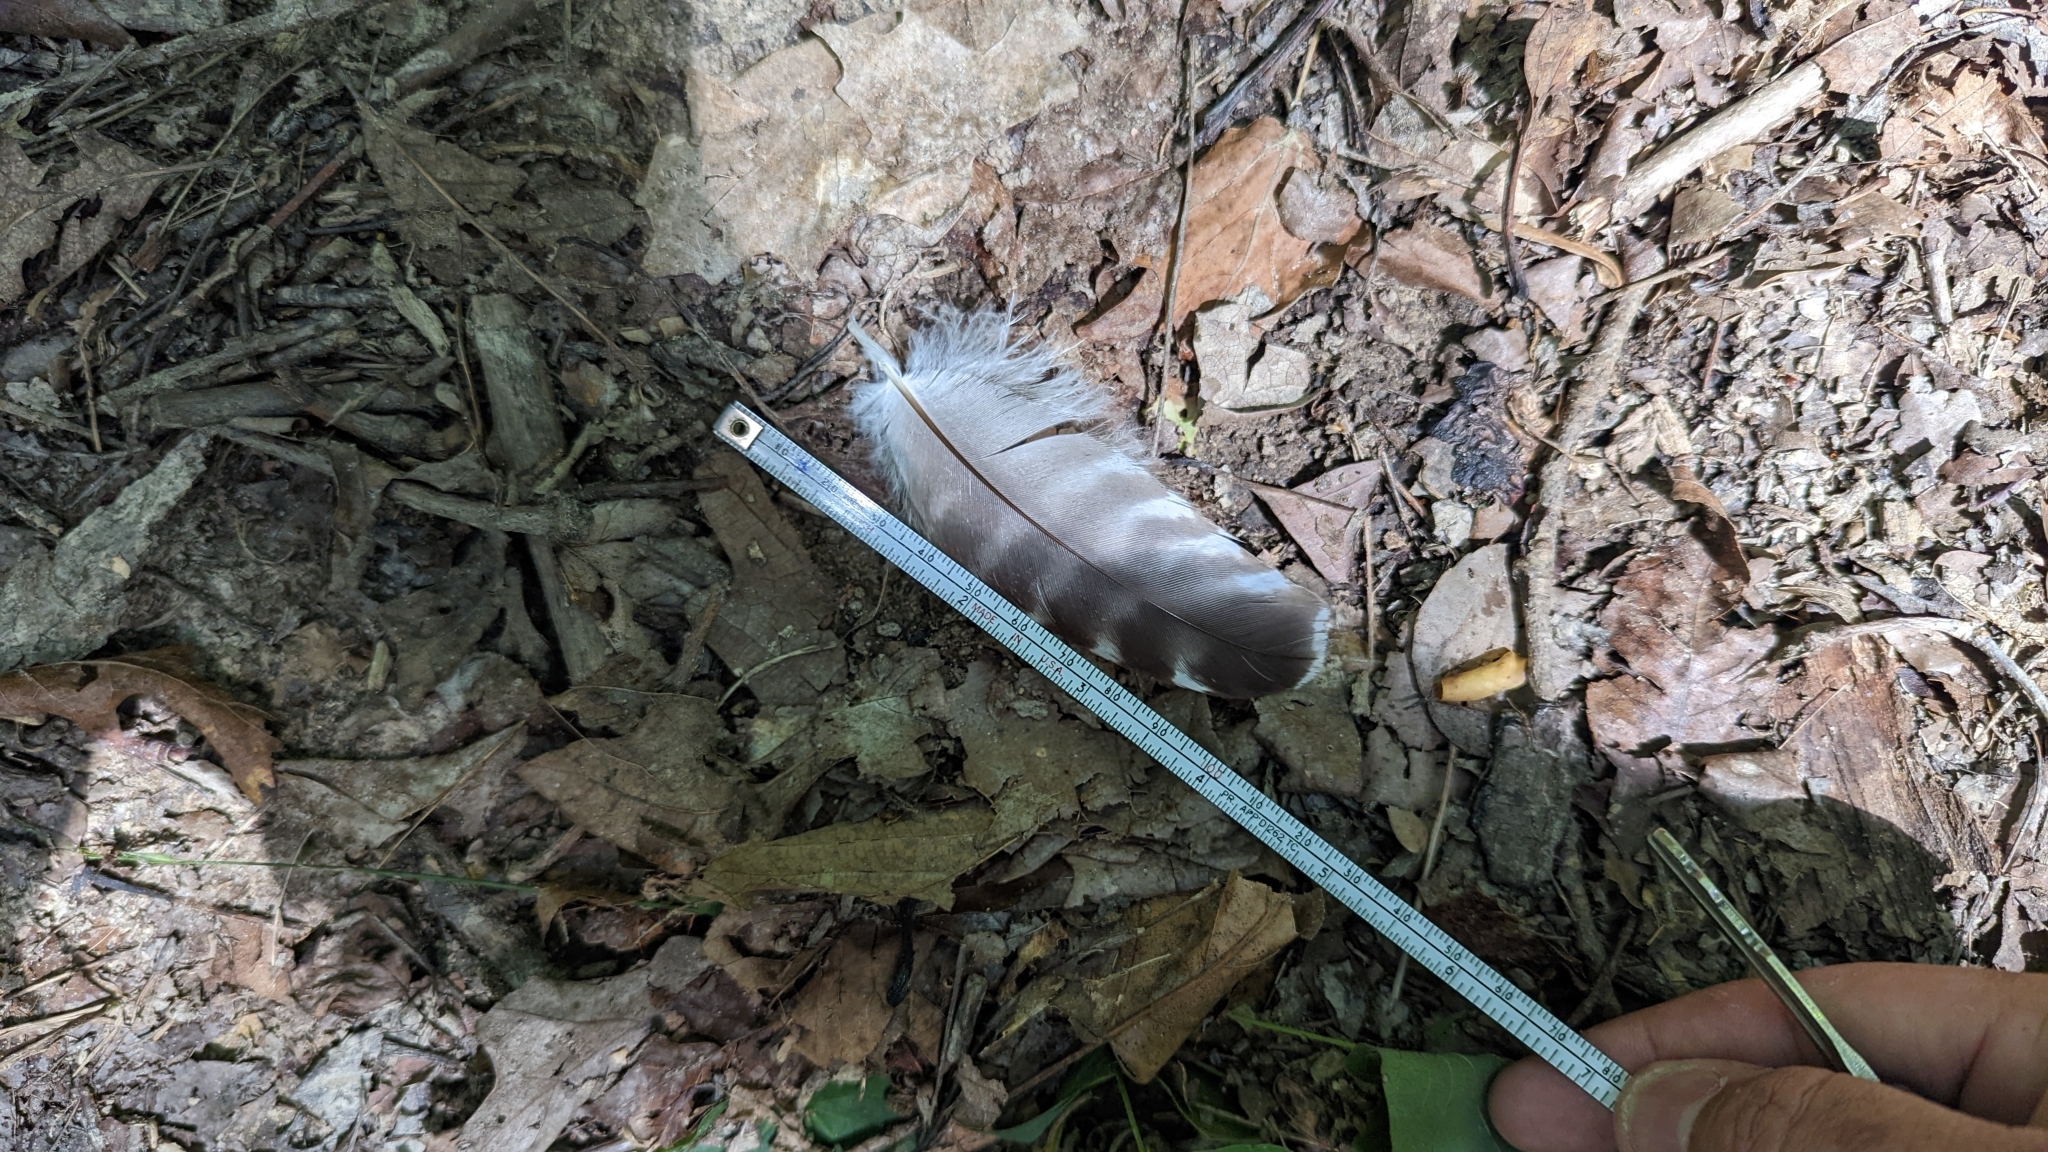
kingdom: Animalia
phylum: Chordata
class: Aves
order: Accipitriformes
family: Accipitridae
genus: Buteo
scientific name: Buteo lineatus
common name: Red-shouldered hawk
